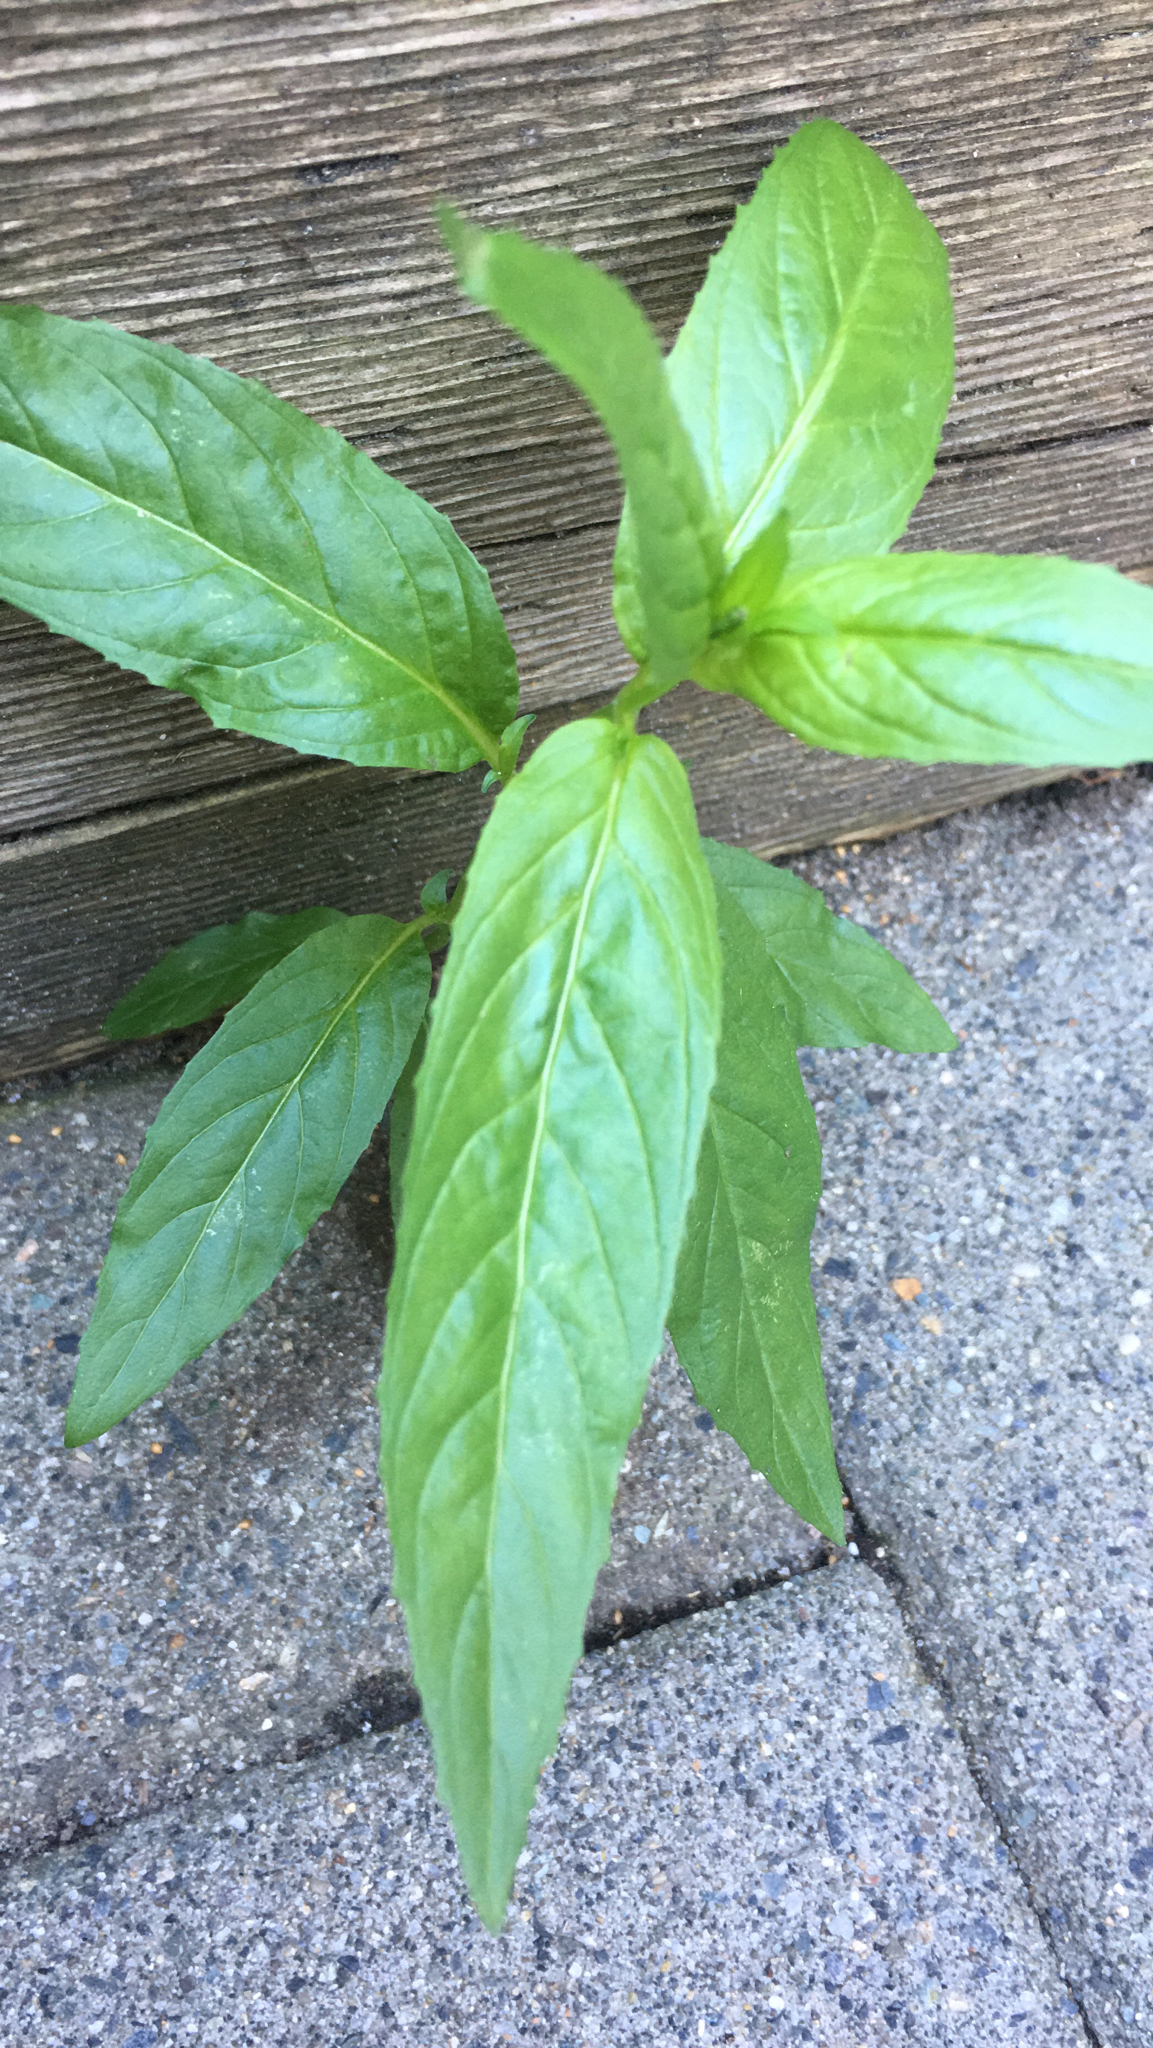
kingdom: Plantae
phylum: Tracheophyta
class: Magnoliopsida
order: Myrtales
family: Onagraceae
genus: Epilobium
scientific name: Epilobium ciliatum
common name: American willowherb
